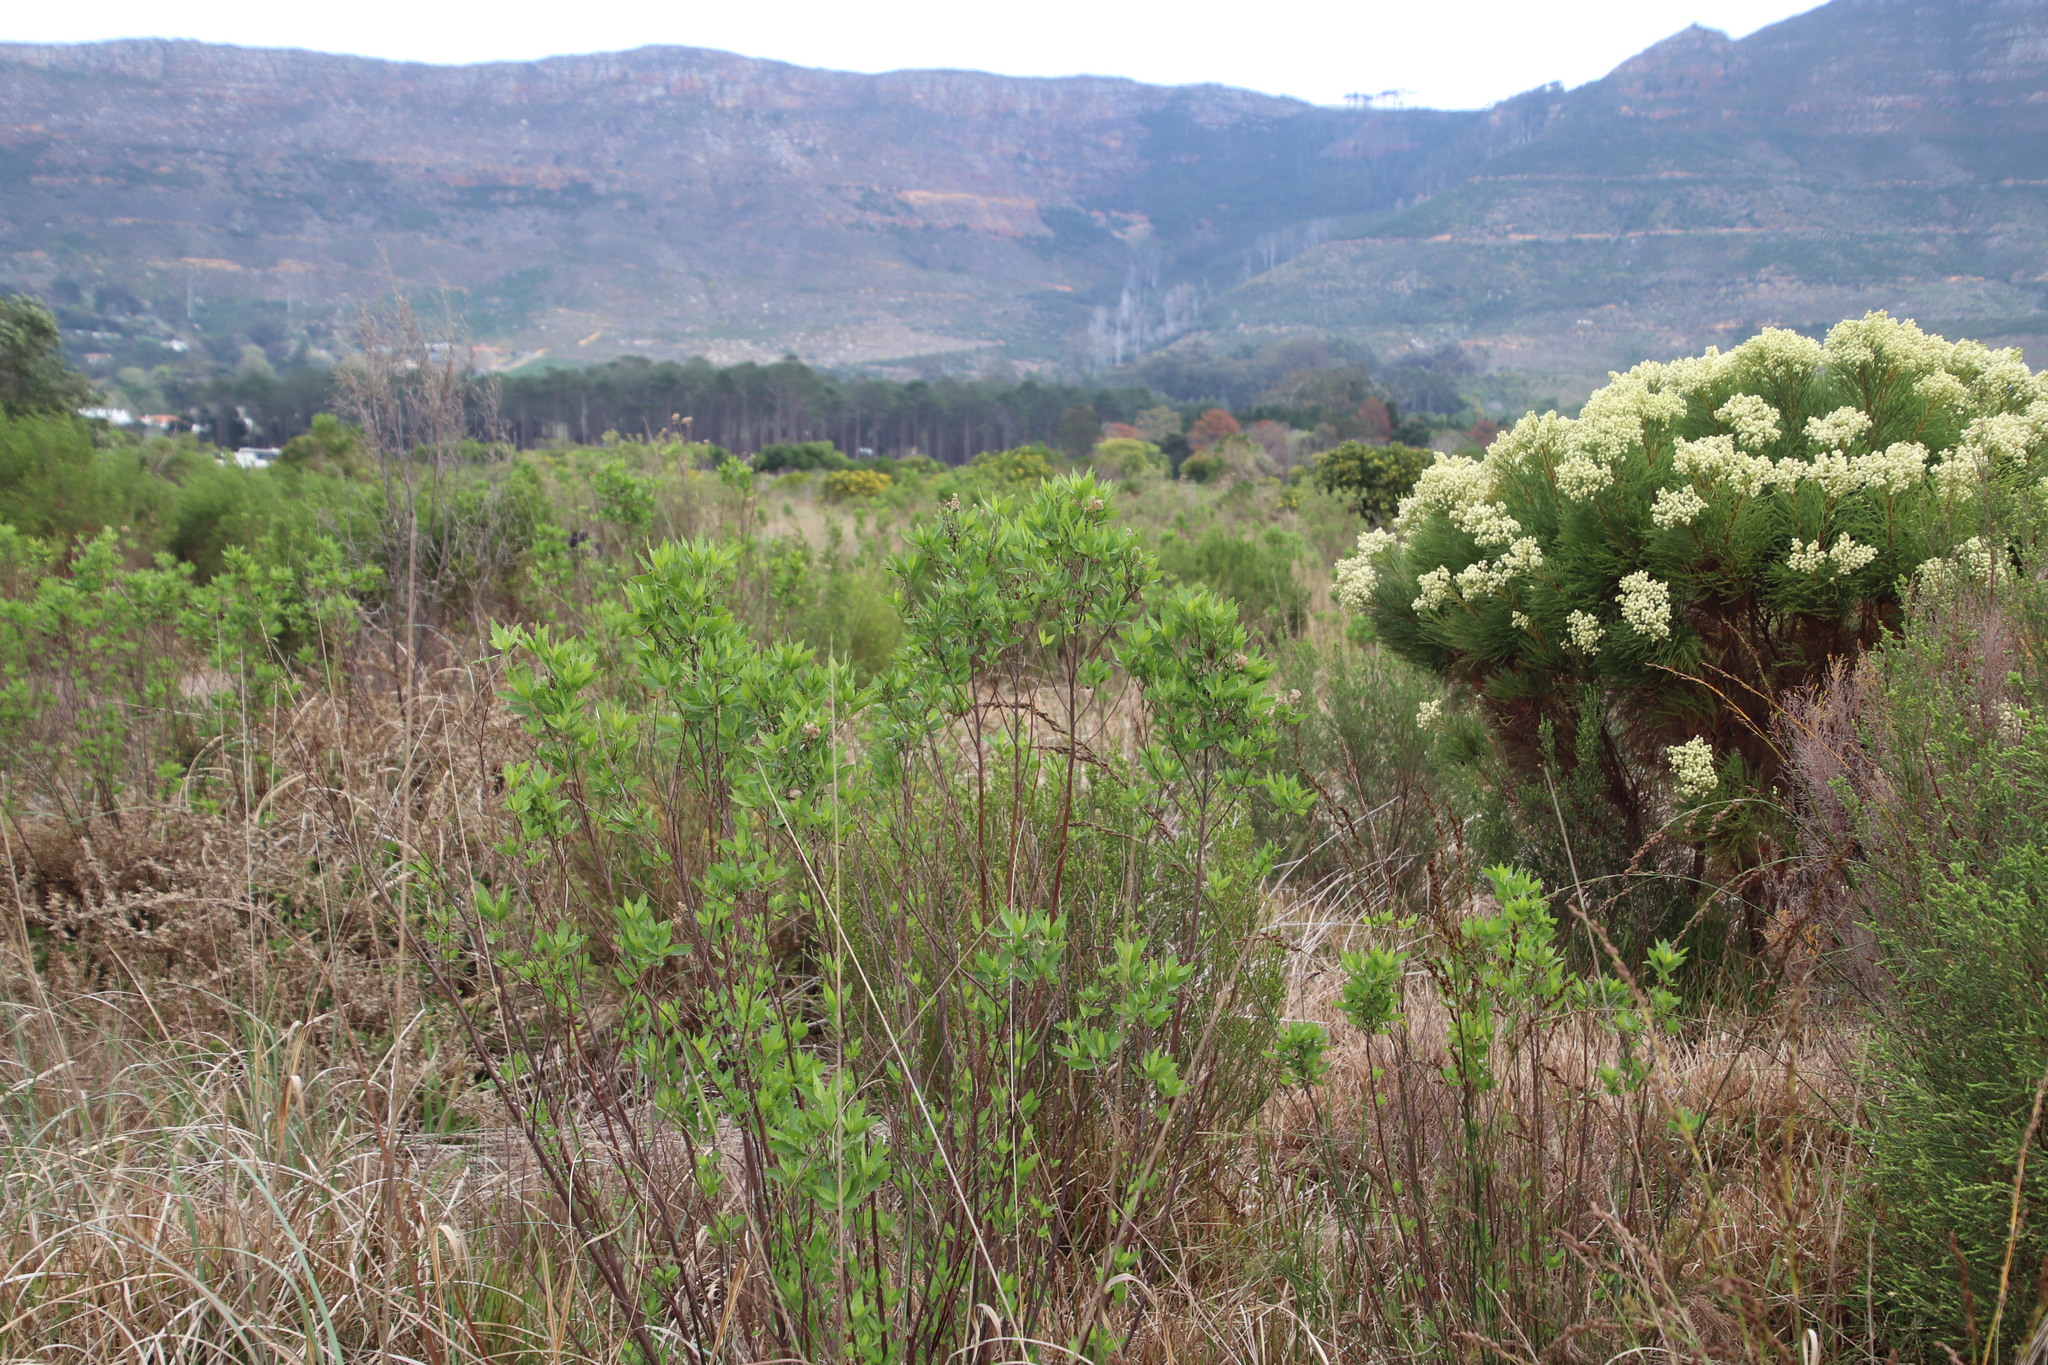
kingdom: Plantae
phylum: Tracheophyta
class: Magnoliopsida
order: Asterales
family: Asteraceae
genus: Nidorella
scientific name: Nidorella ivifolia
